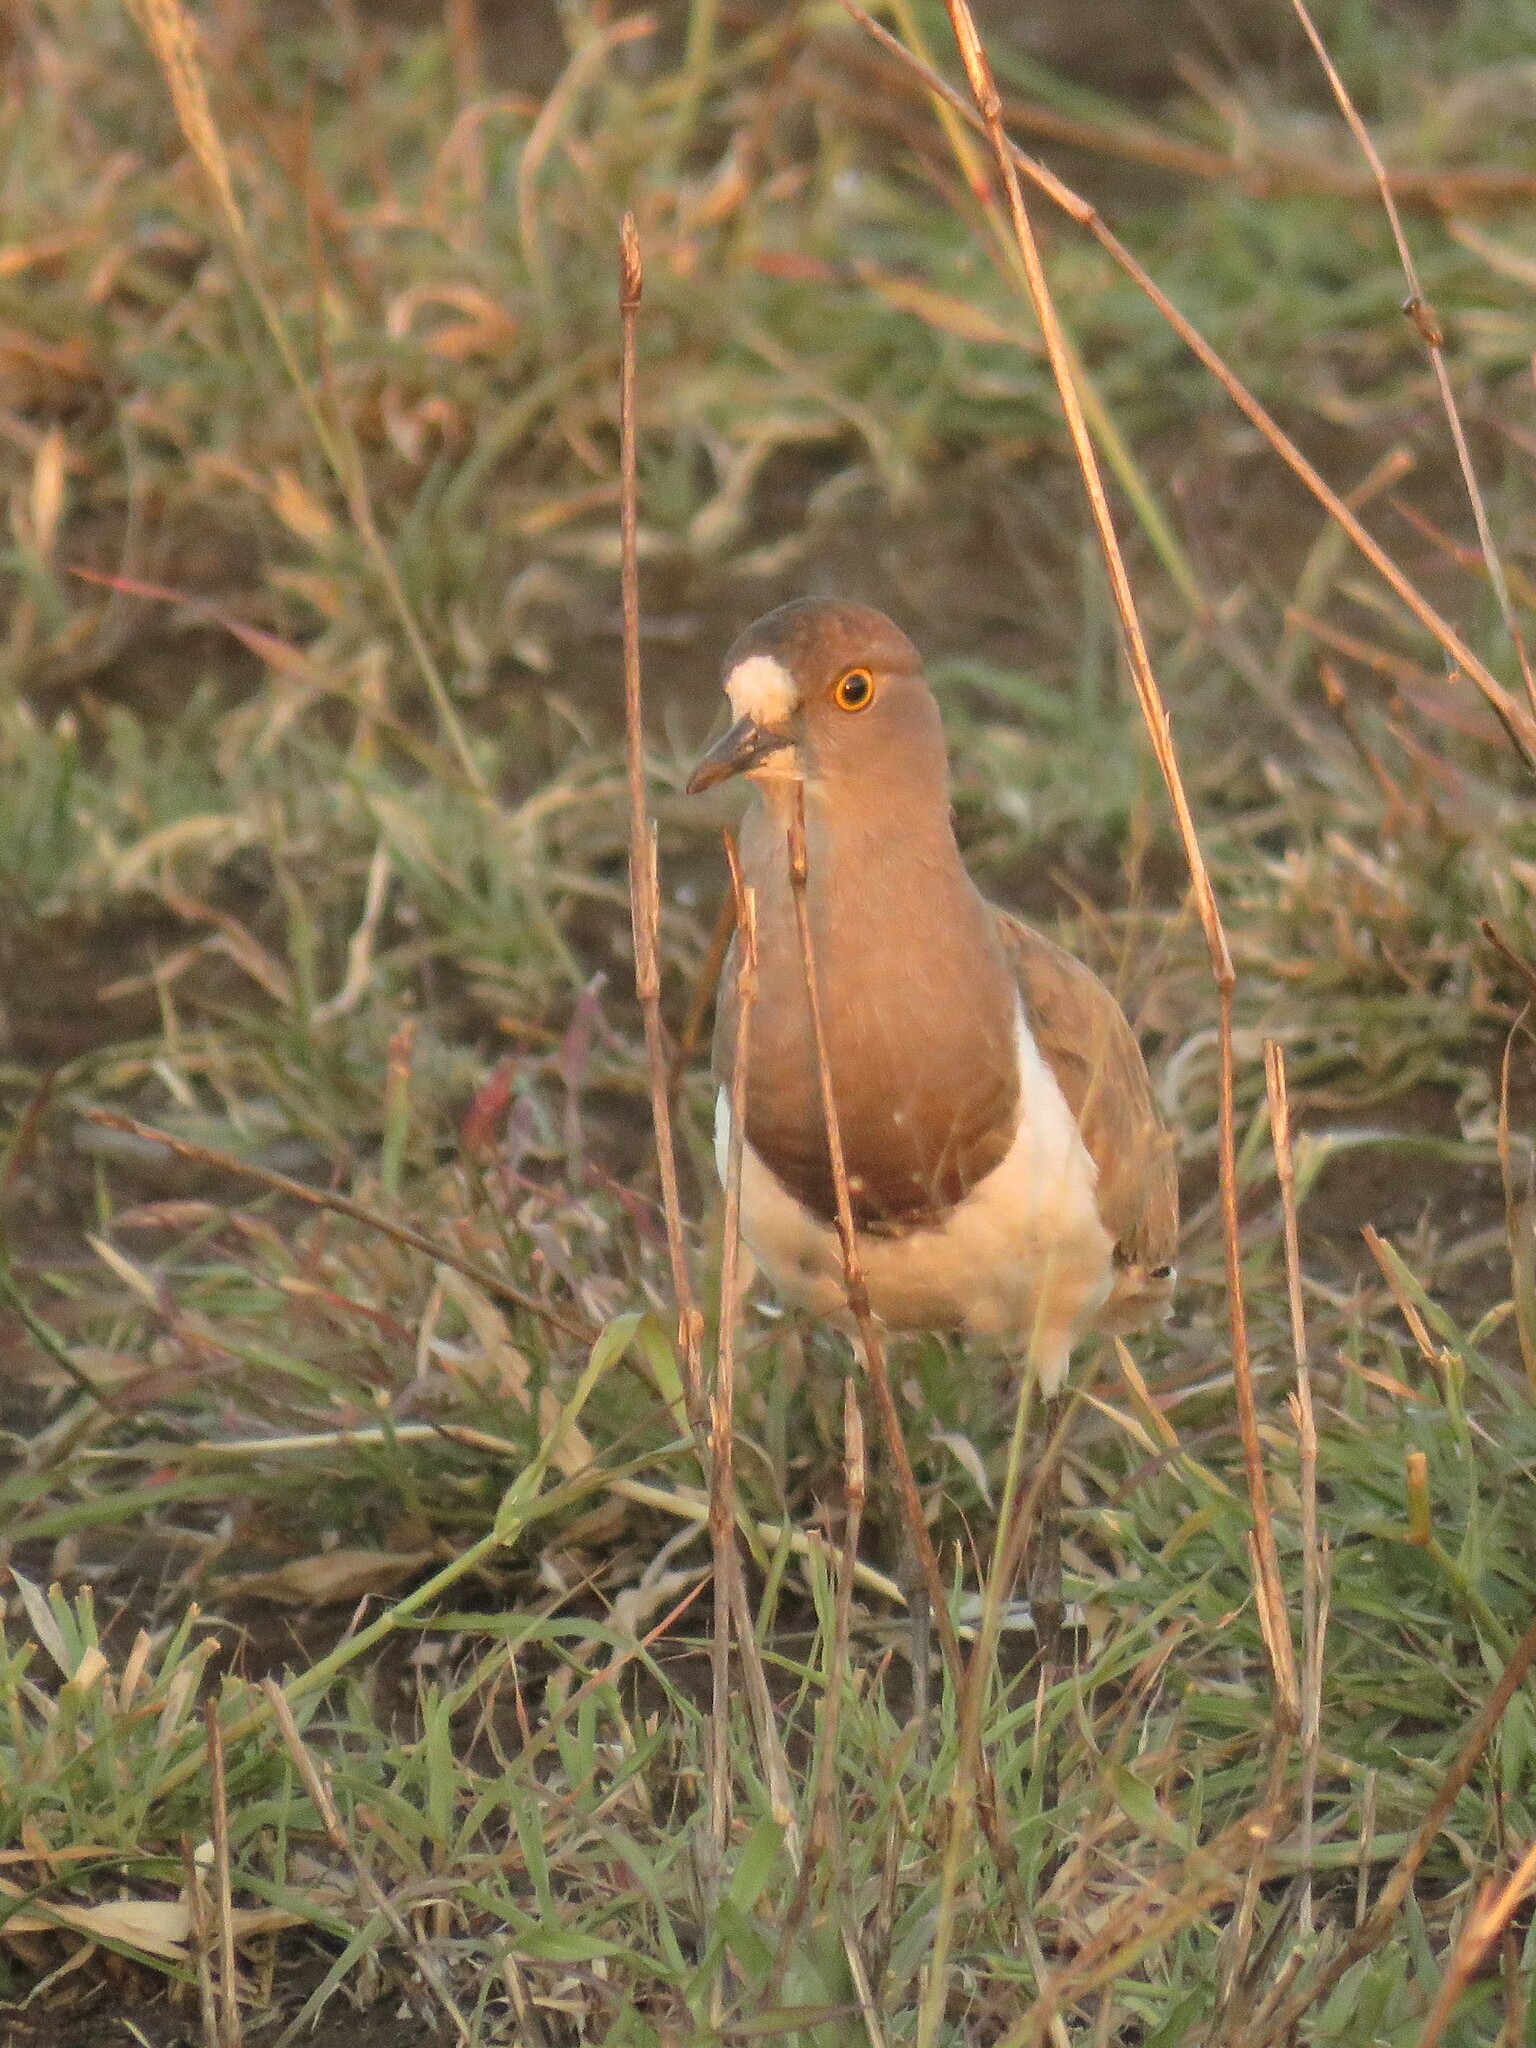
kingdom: Animalia
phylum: Chordata
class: Aves
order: Charadriiformes
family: Charadriidae
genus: Vanellus
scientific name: Vanellus lugubris
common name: Senegal lapwing
